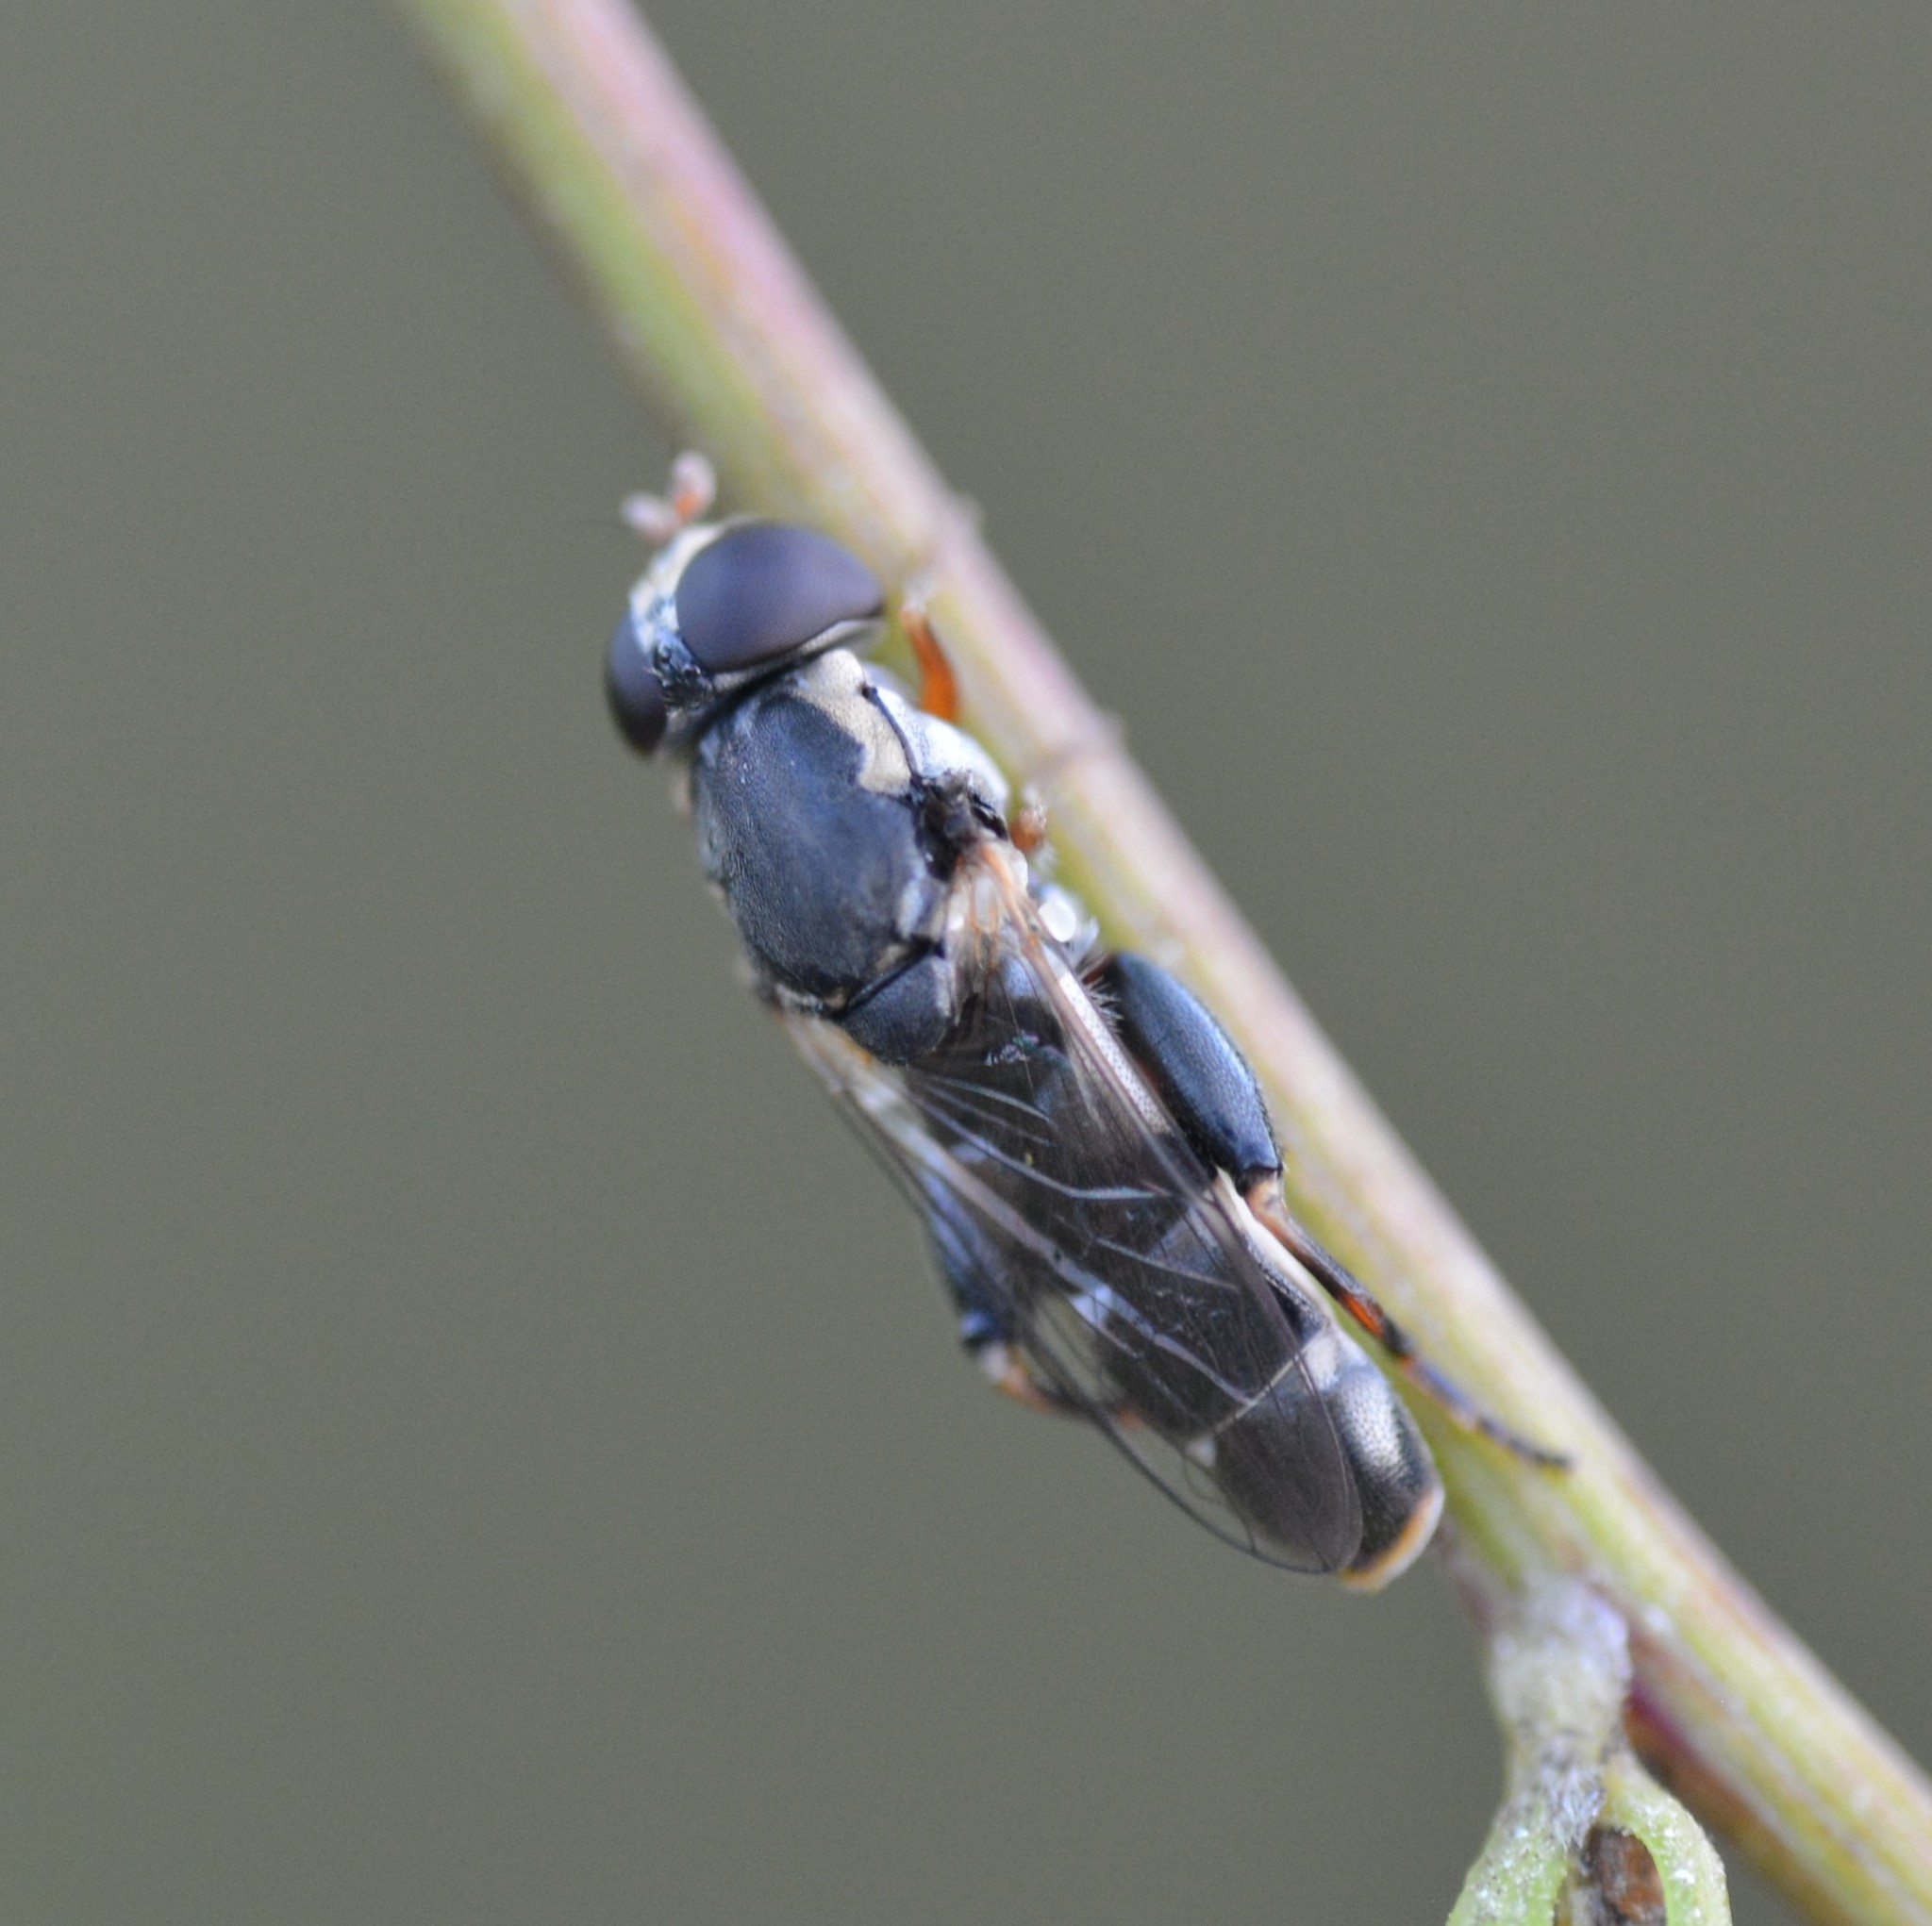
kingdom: Animalia
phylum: Arthropoda
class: Insecta
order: Diptera
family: Syrphidae
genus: Syritta
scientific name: Syritta pipiens
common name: Hover fly
